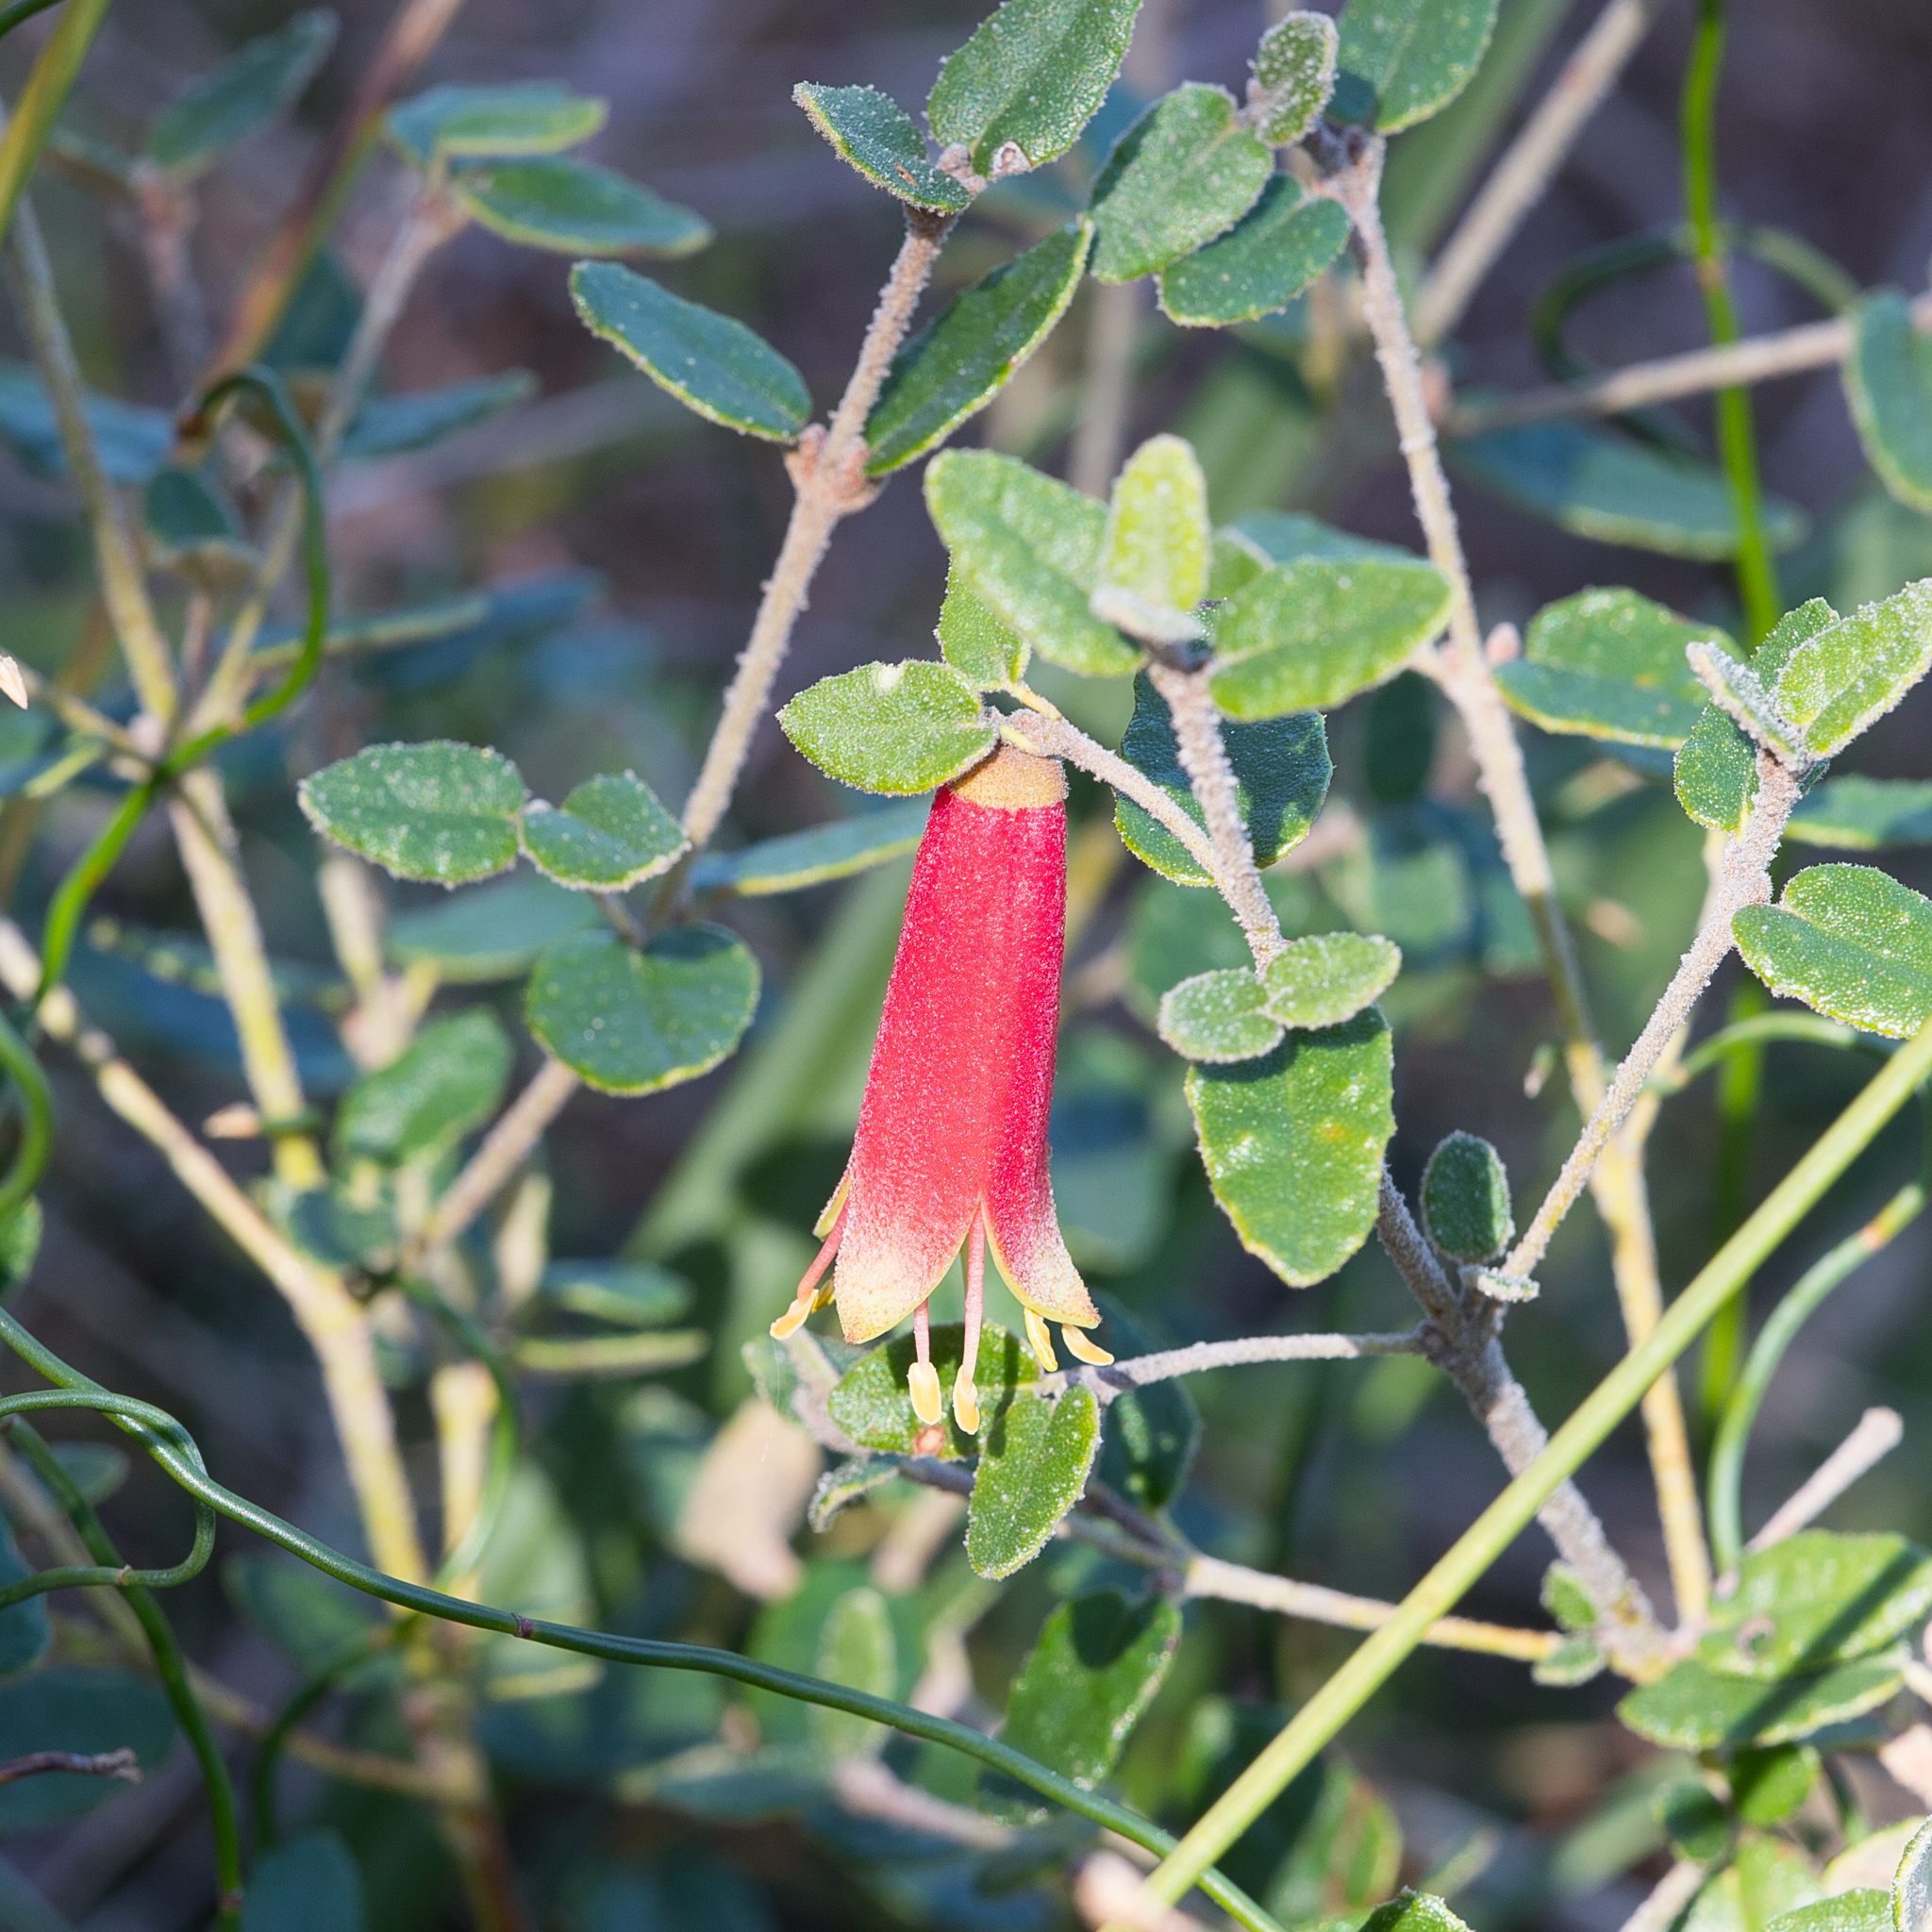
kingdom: Plantae
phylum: Tracheophyta
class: Magnoliopsida
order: Sapindales
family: Rutaceae
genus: Correa
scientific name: Correa reflexa
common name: Common correa
